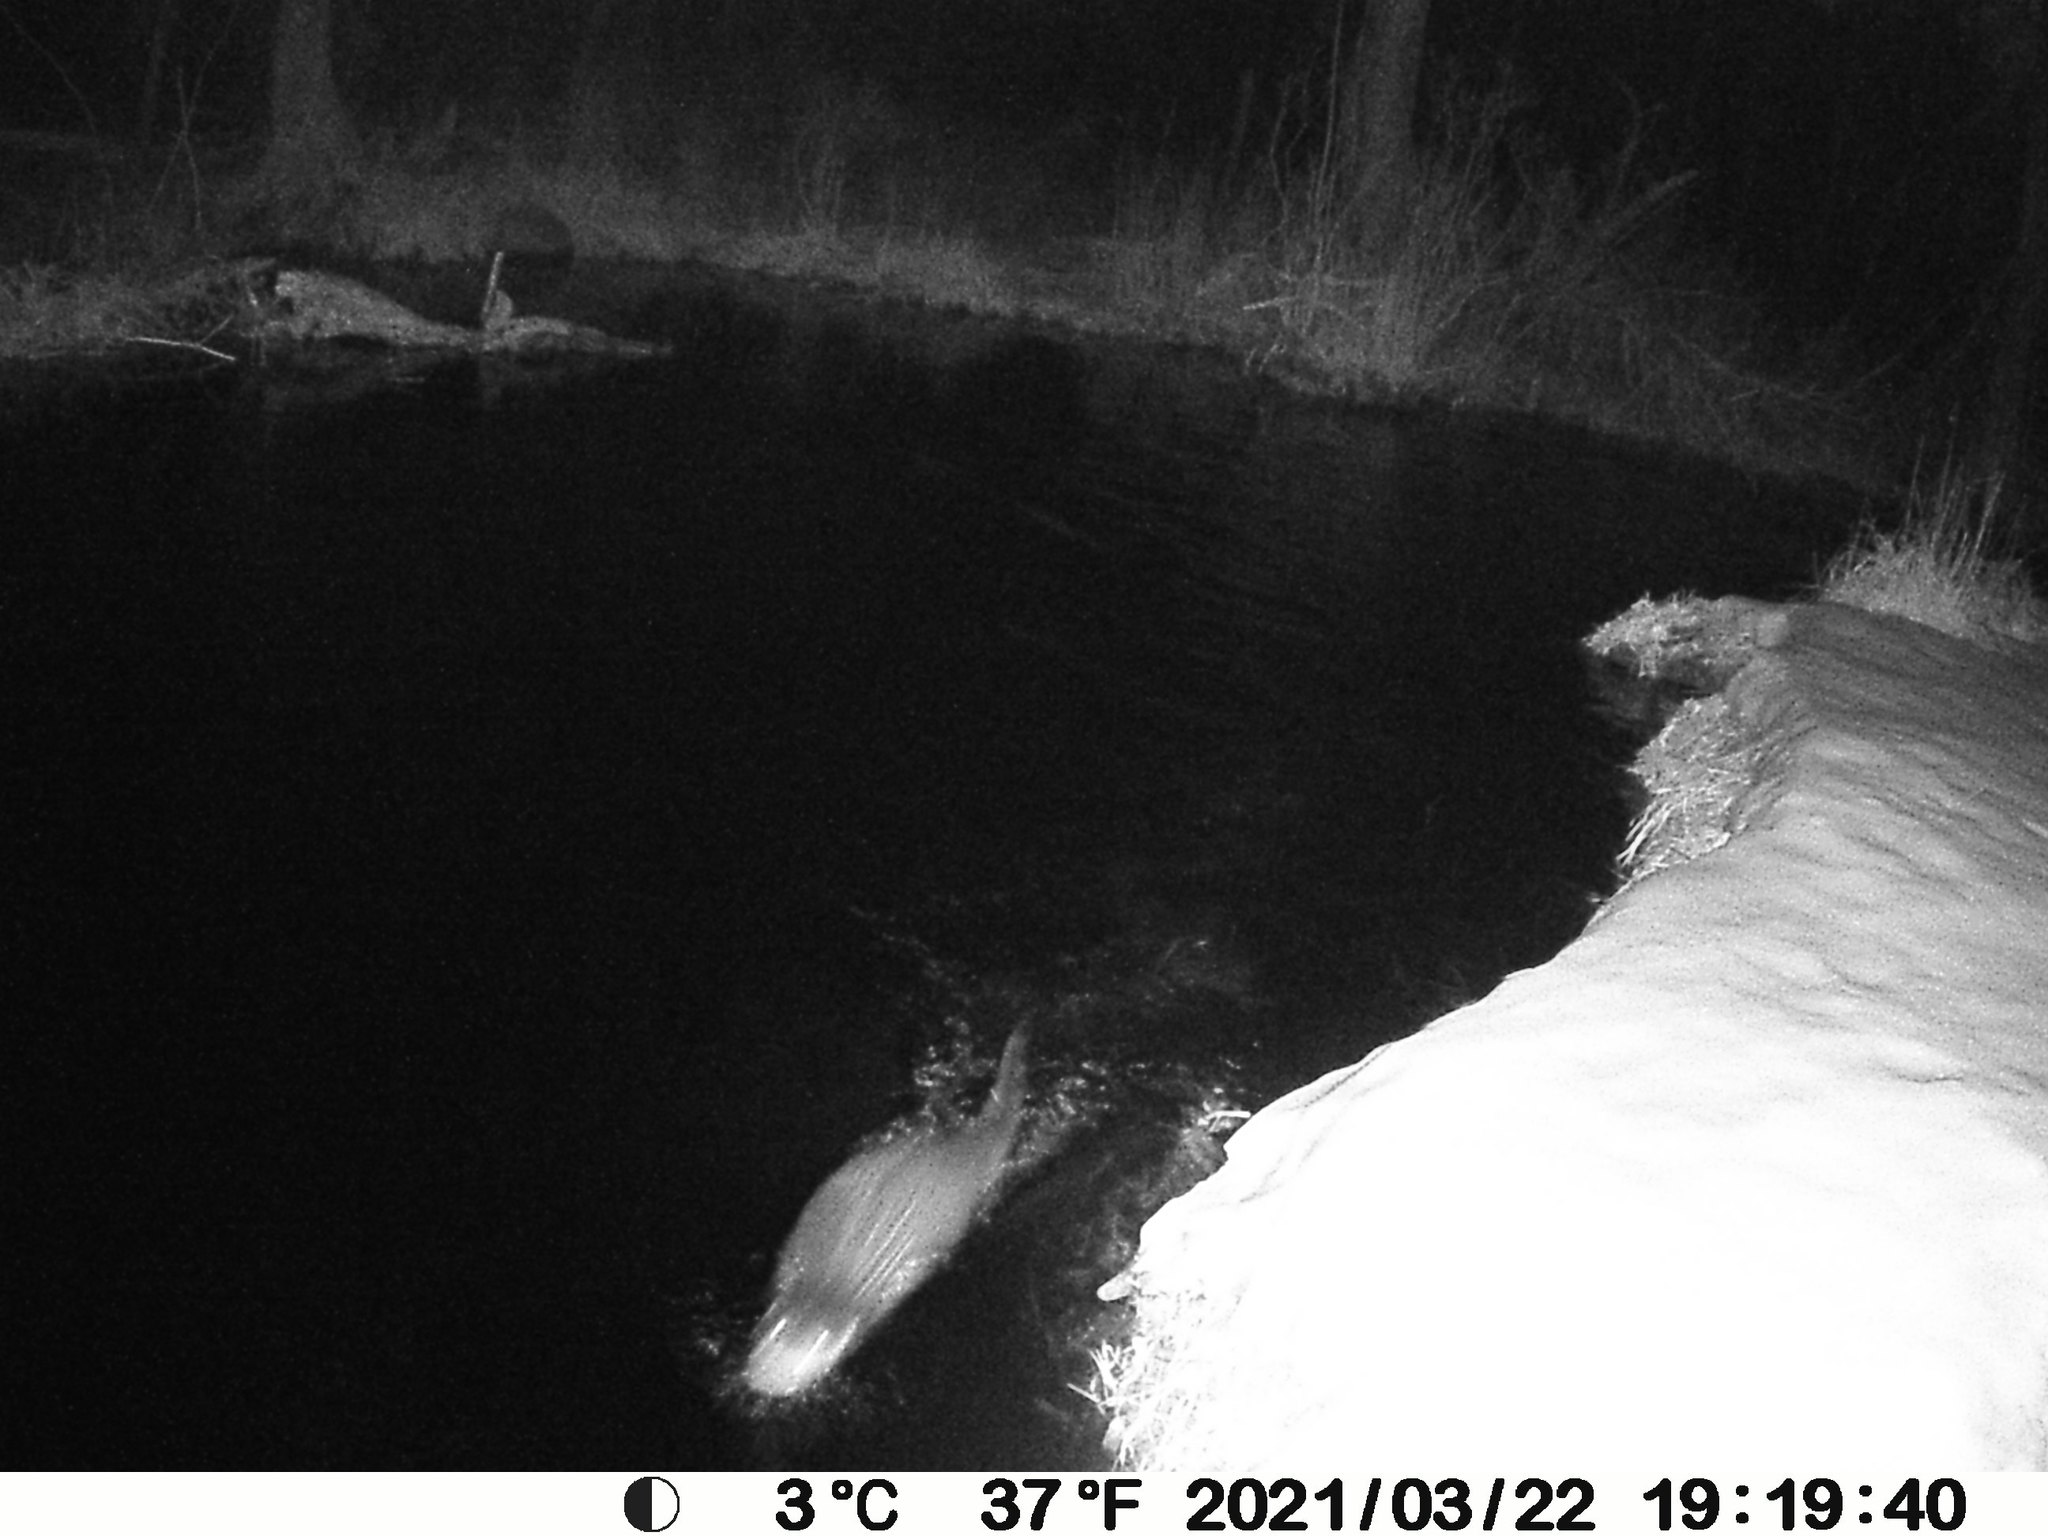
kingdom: Animalia
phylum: Chordata
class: Mammalia
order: Carnivora
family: Mustelidae
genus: Lontra
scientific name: Lontra canadensis
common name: North american river otter
